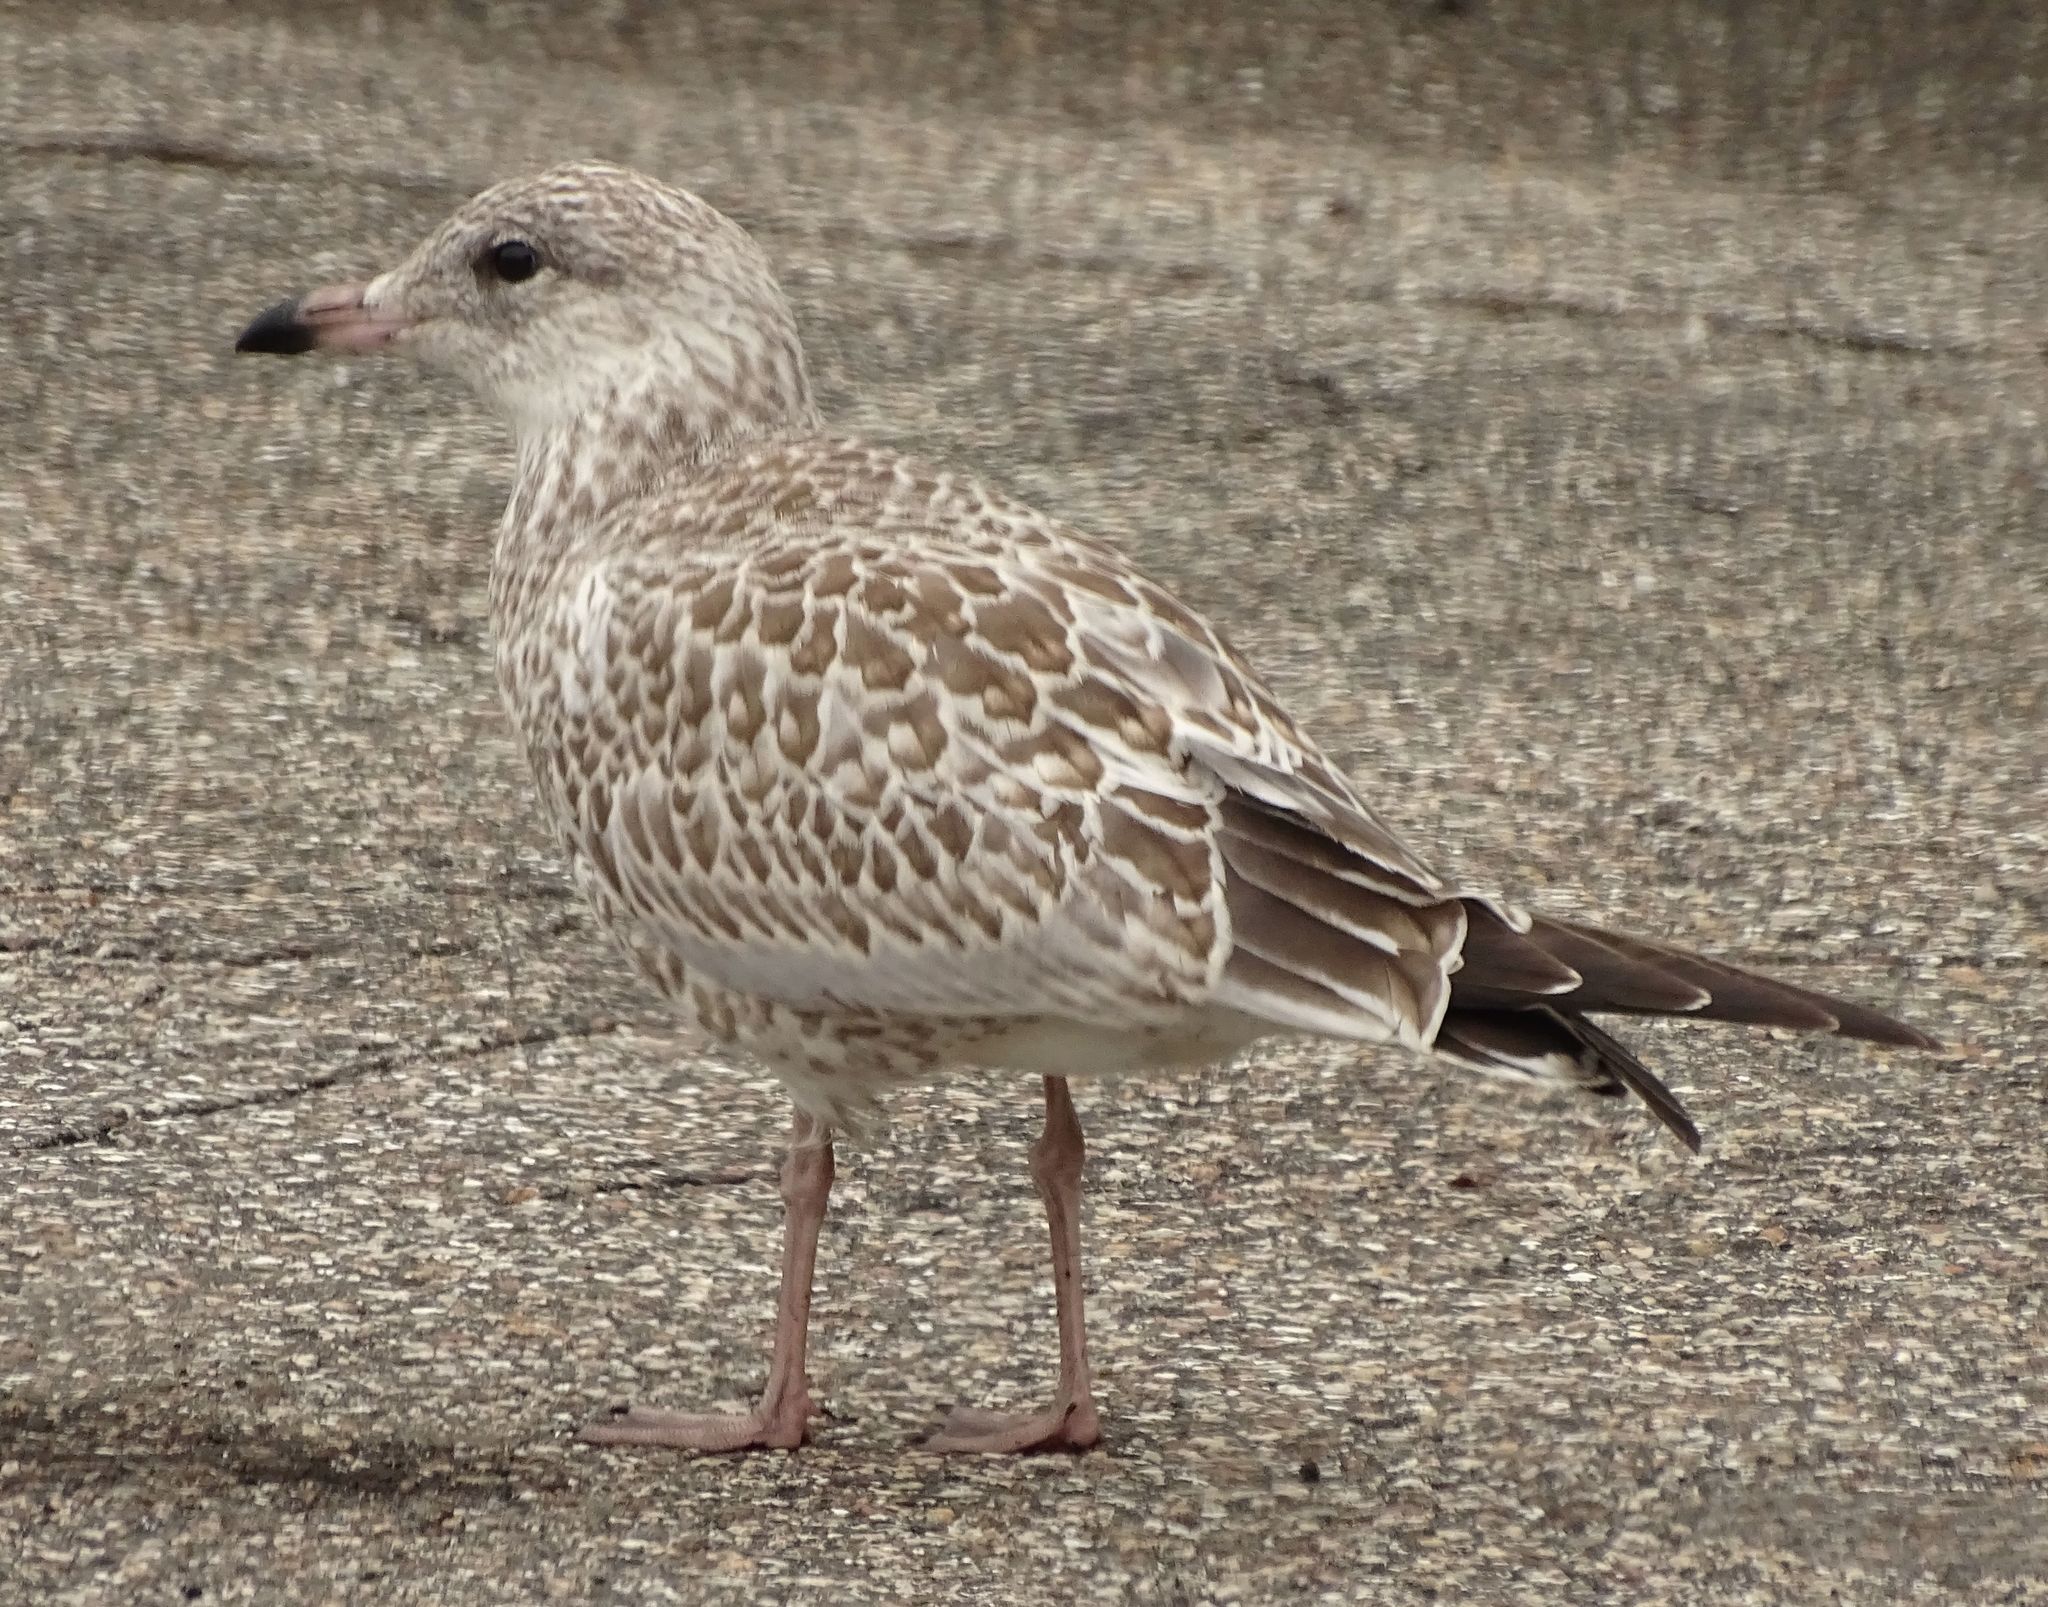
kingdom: Animalia
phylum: Chordata
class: Aves
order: Charadriiformes
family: Laridae
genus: Larus
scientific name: Larus delawarensis
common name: Ring-billed gull
